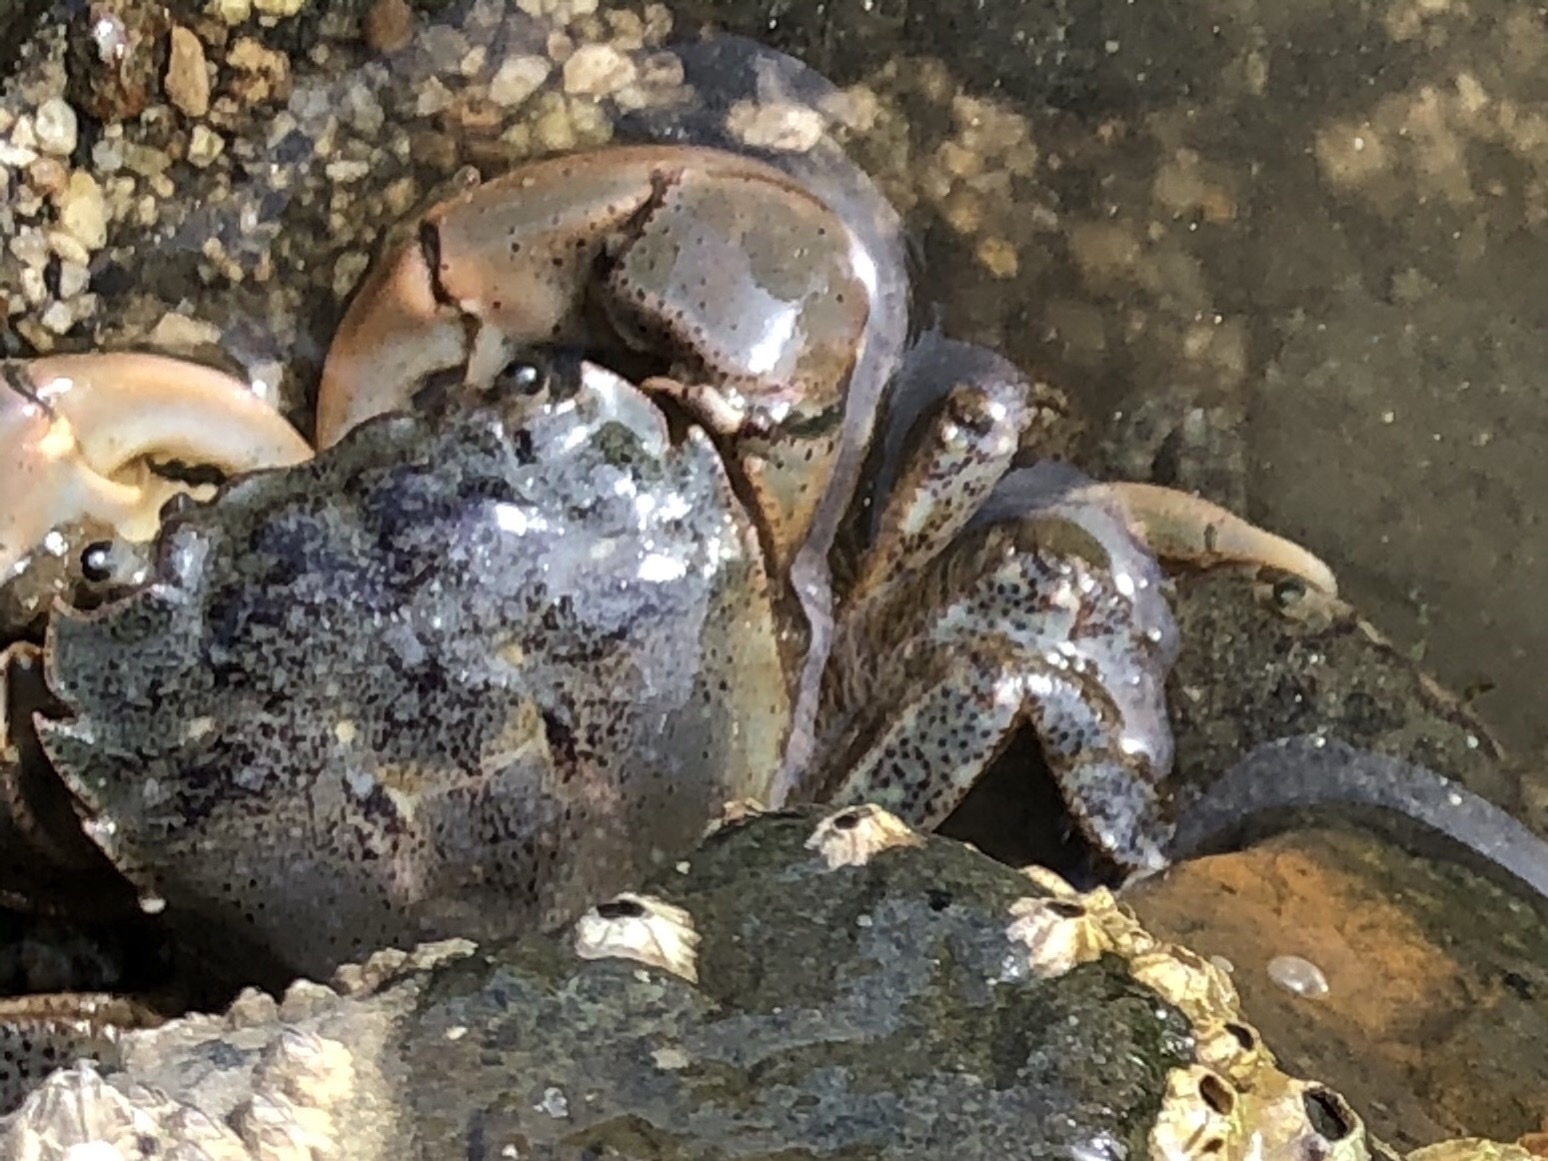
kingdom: Animalia
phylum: Arthropoda
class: Malacostraca
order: Decapoda
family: Varunidae
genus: Hemigrapsus
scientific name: Hemigrapsus oregonensis
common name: Yellow shore crab
